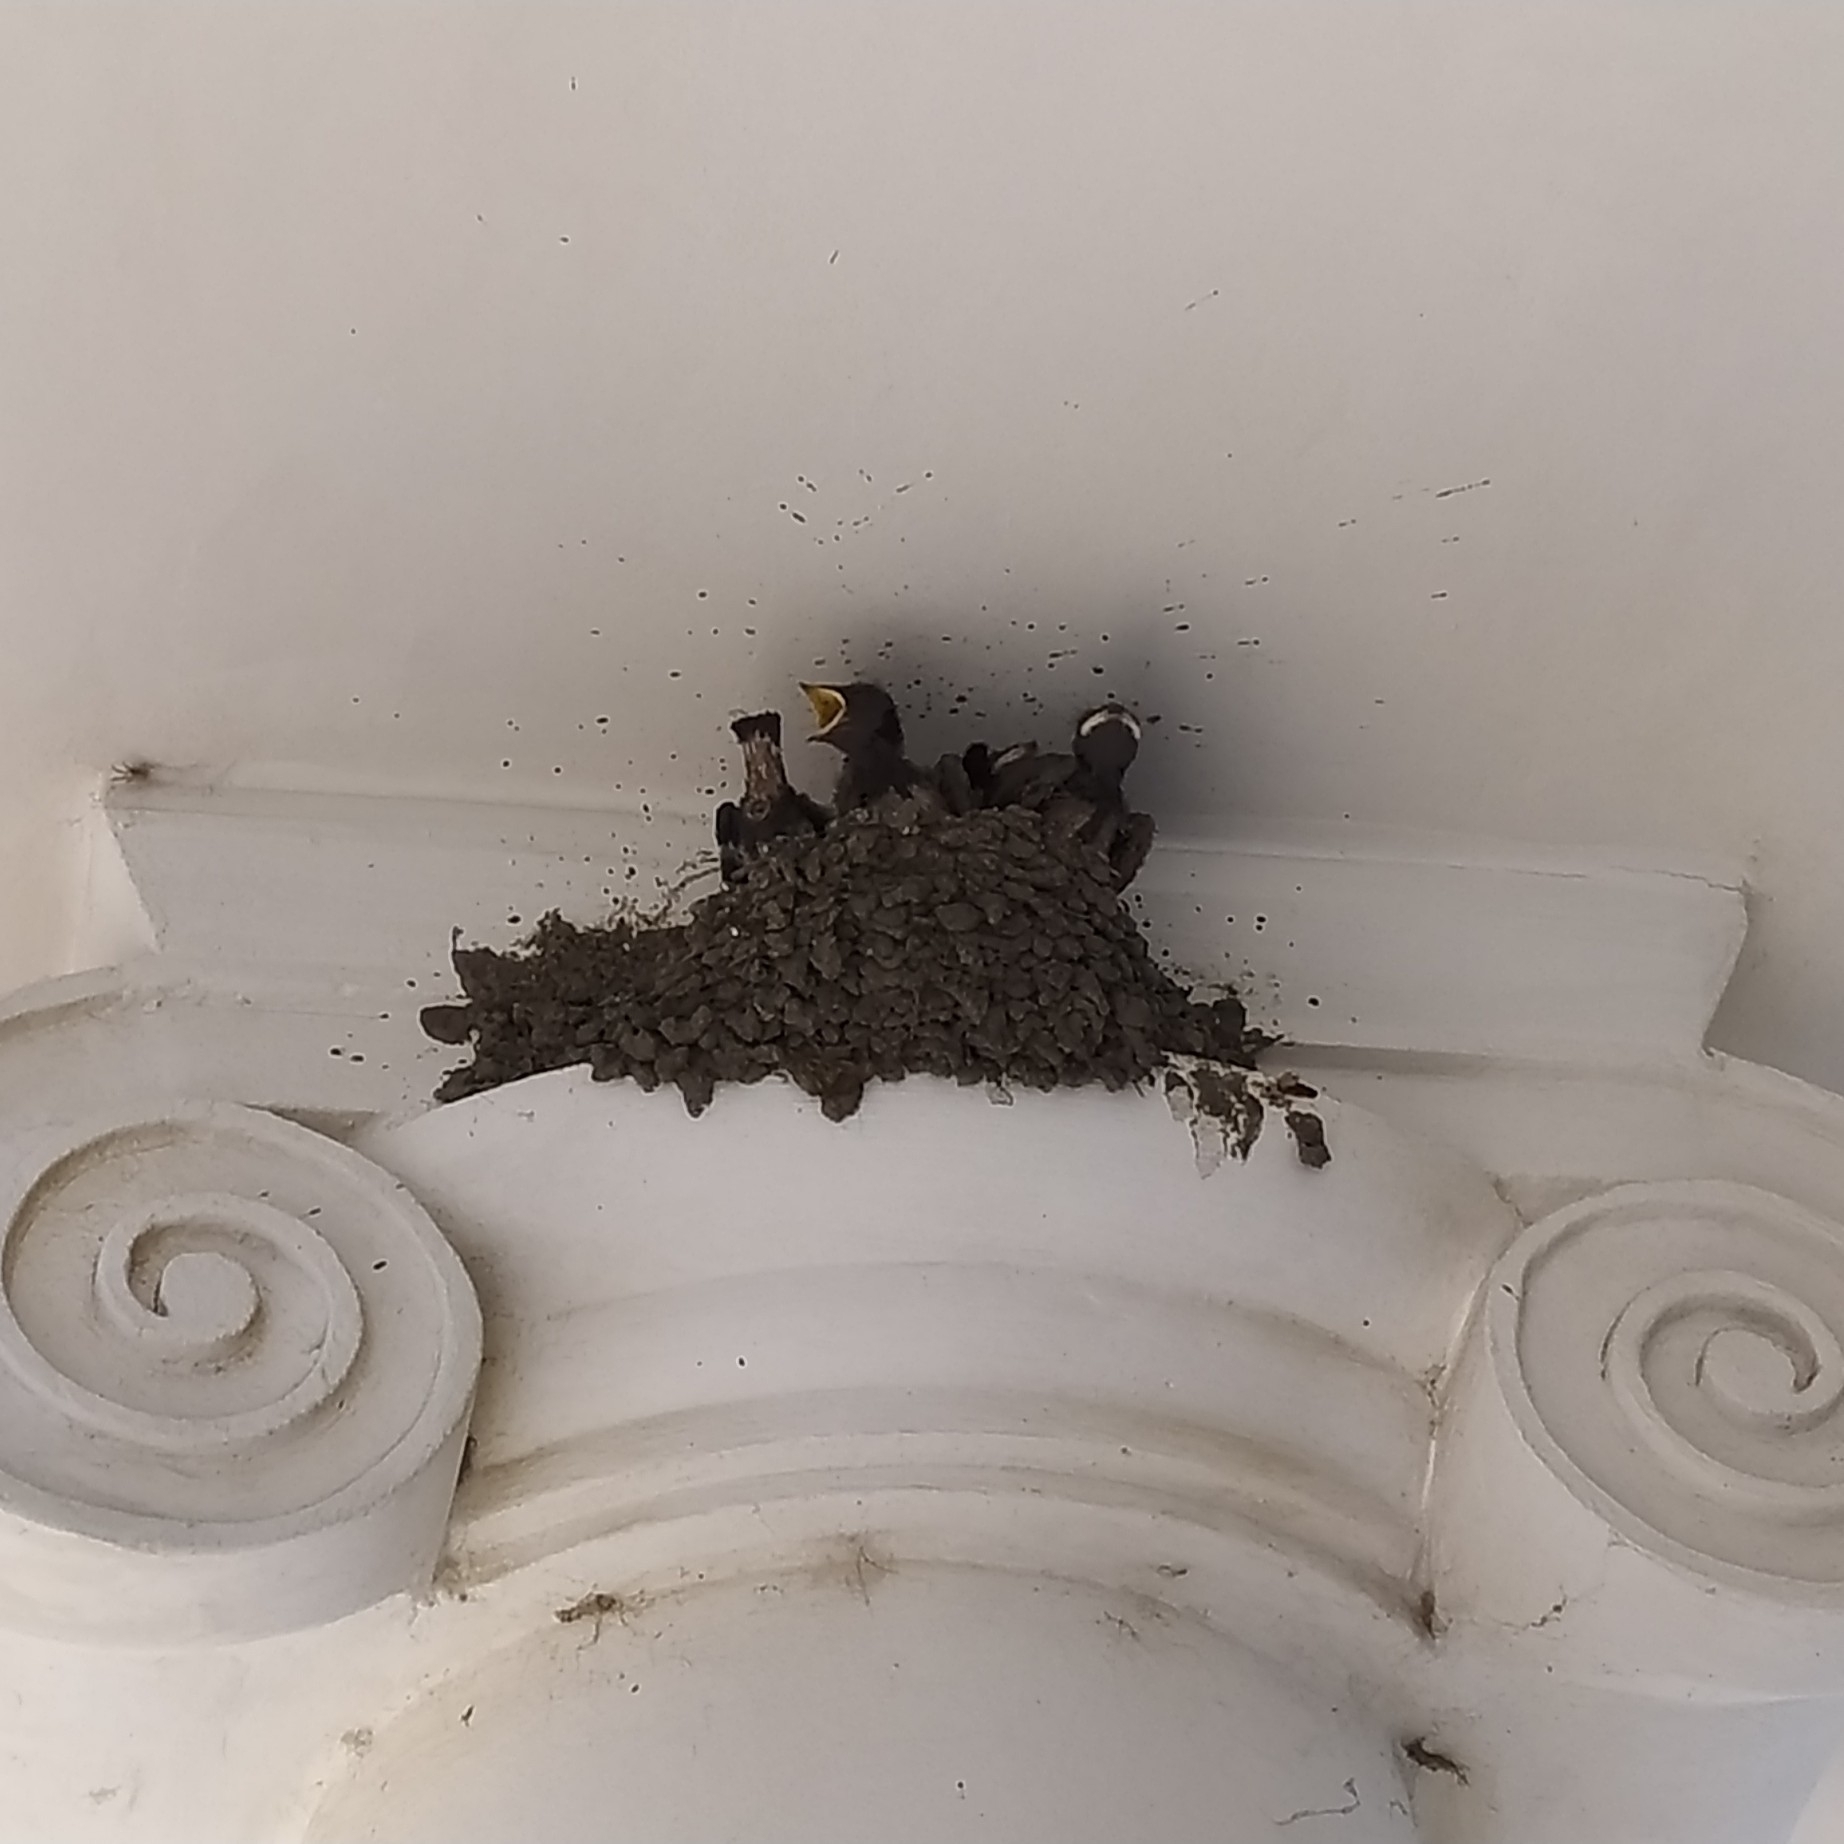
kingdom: Animalia
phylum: Chordata
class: Aves
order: Passeriformes
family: Hirundinidae
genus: Hirundo
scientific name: Hirundo rustica
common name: Barn swallow
